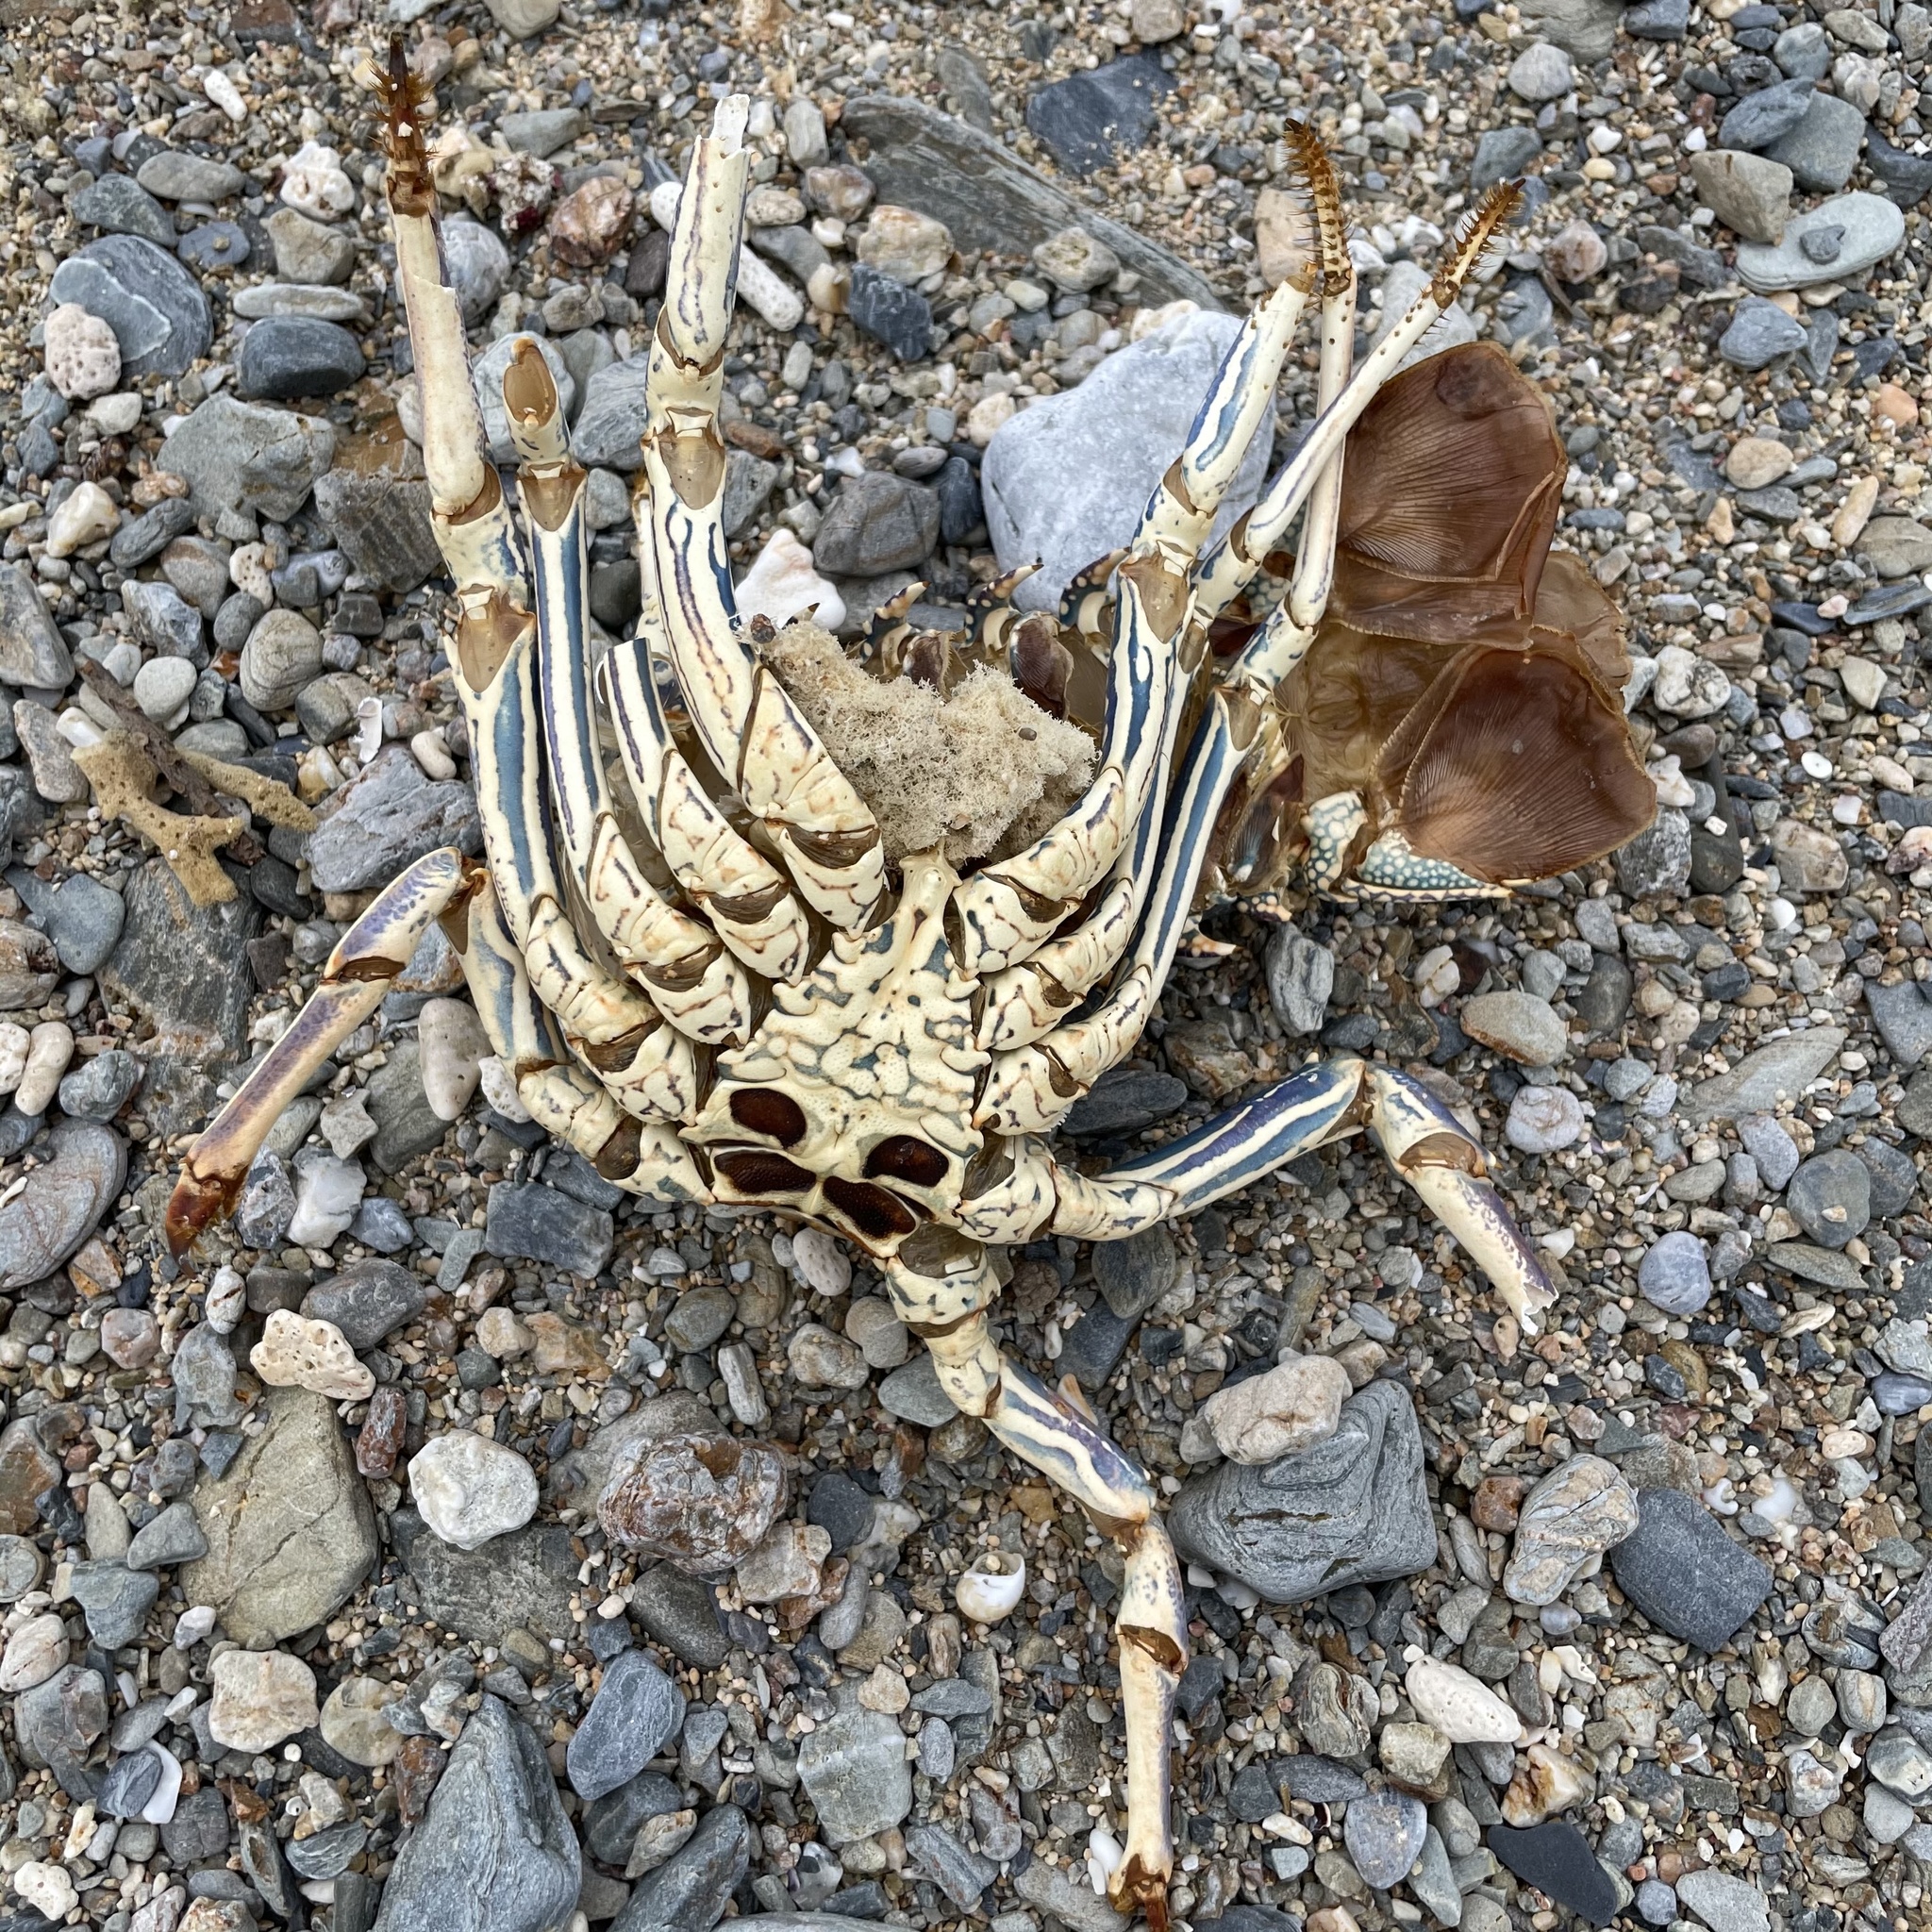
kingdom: Animalia
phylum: Arthropoda
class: Malacostraca
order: Decapoda
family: Palinuridae
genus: Panulirus
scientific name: Panulirus penicillatus
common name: Pronghorn spiny lobster
